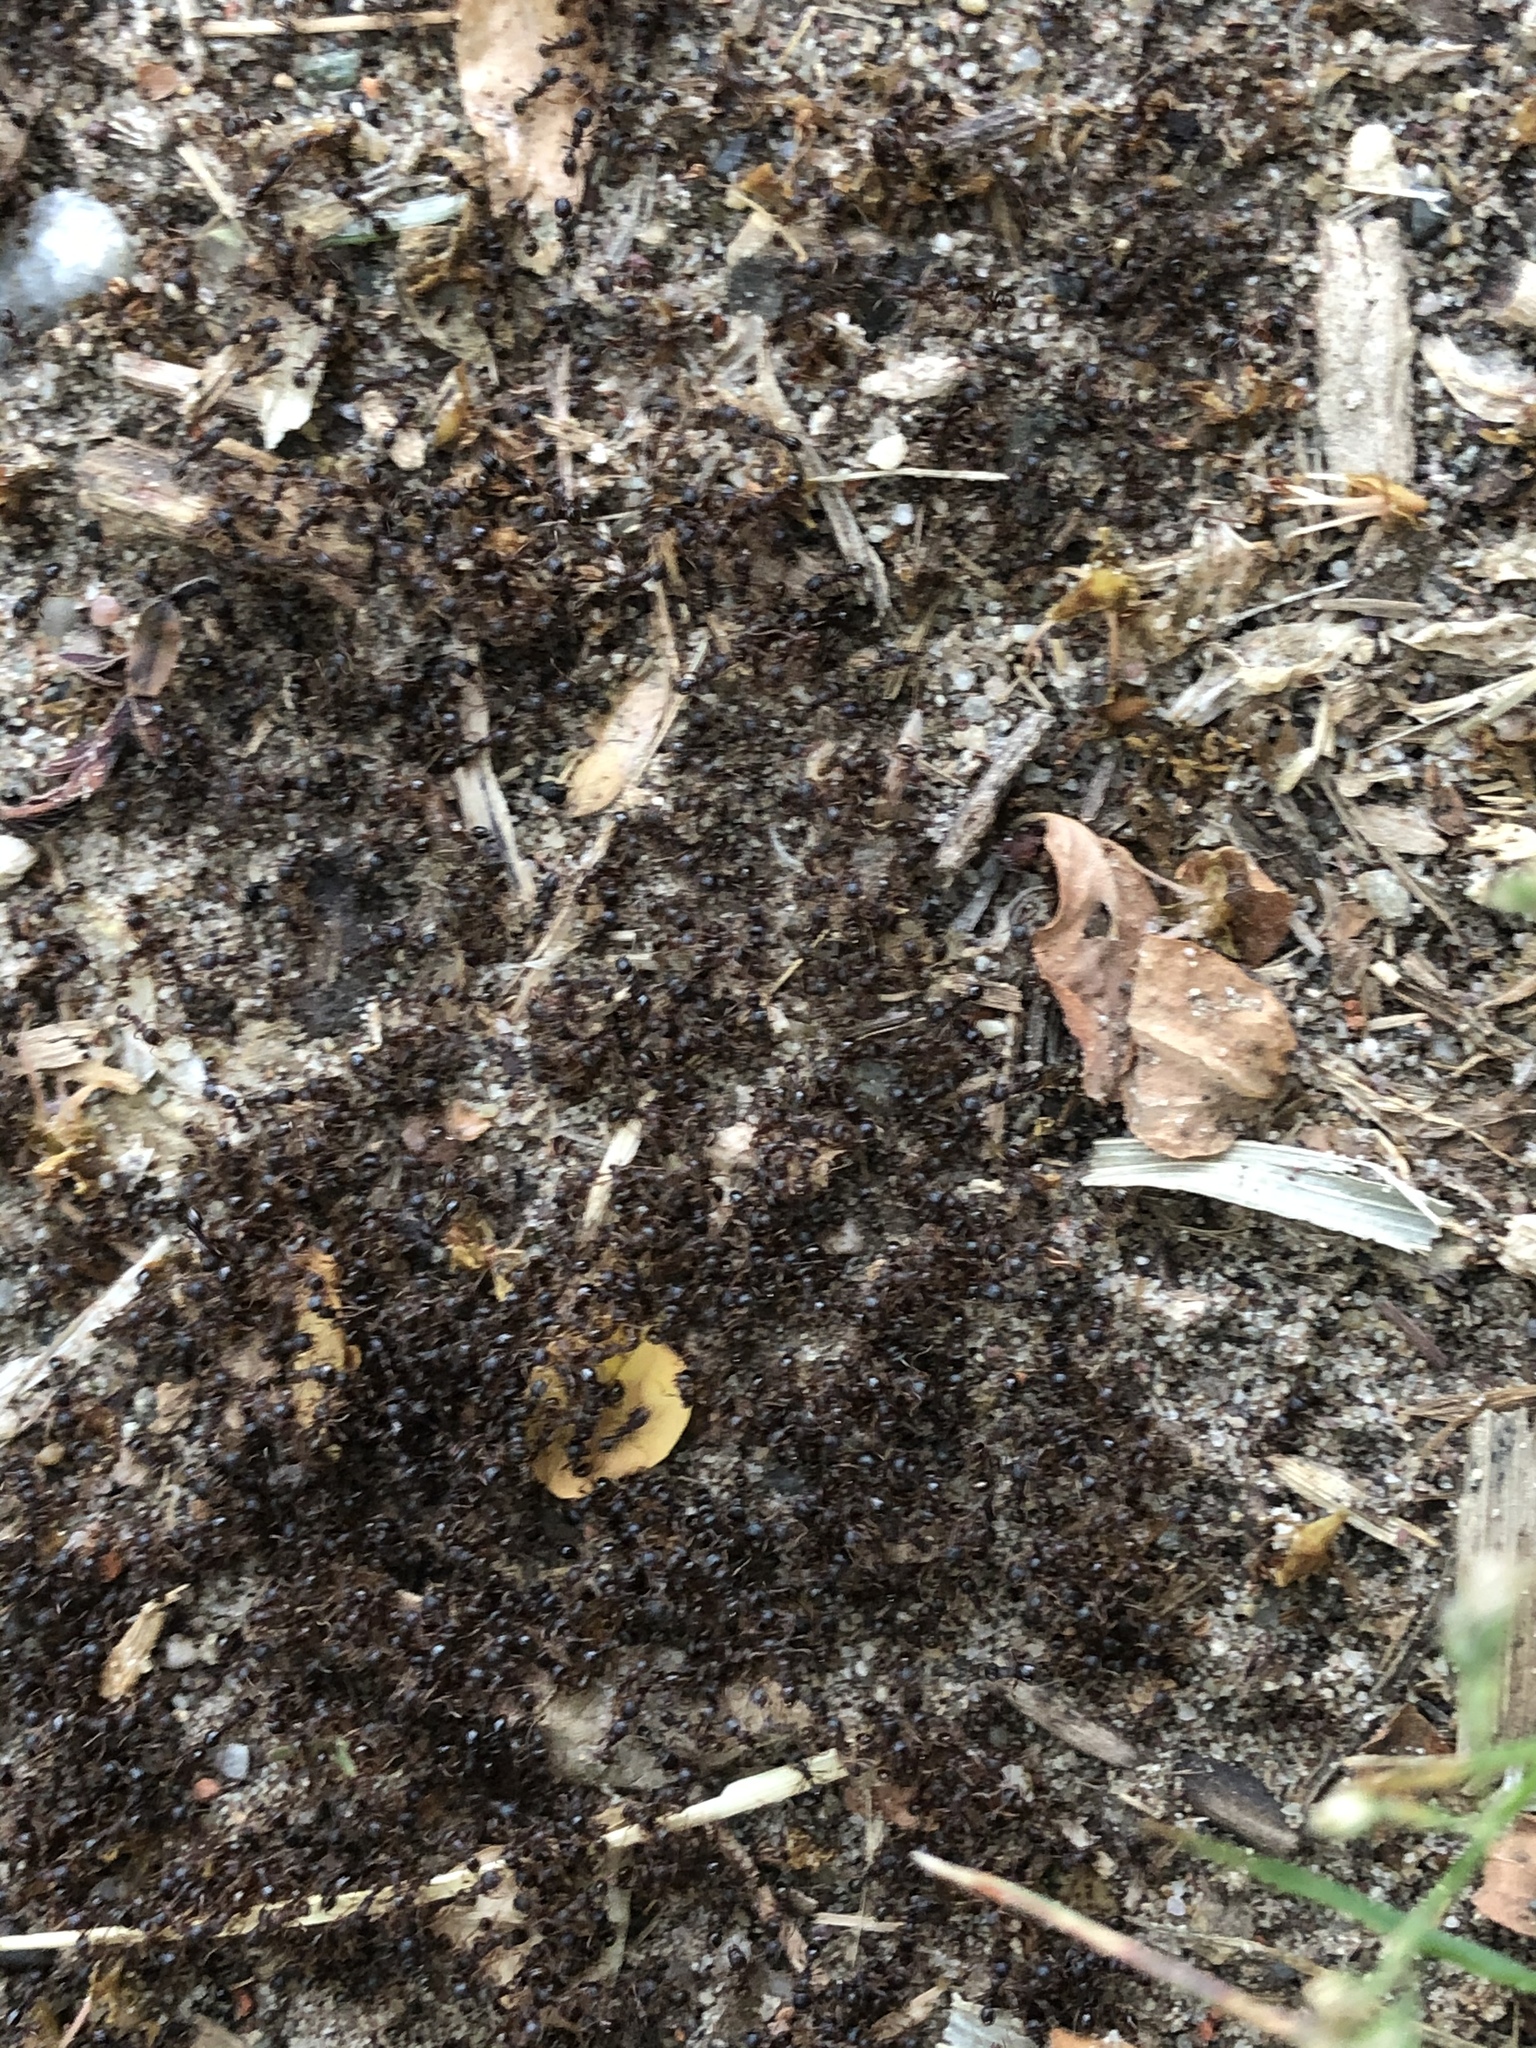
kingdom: Animalia
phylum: Arthropoda
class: Insecta
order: Hymenoptera
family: Formicidae
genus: Tetramorium
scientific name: Tetramorium immigrans
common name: Pavement ant
